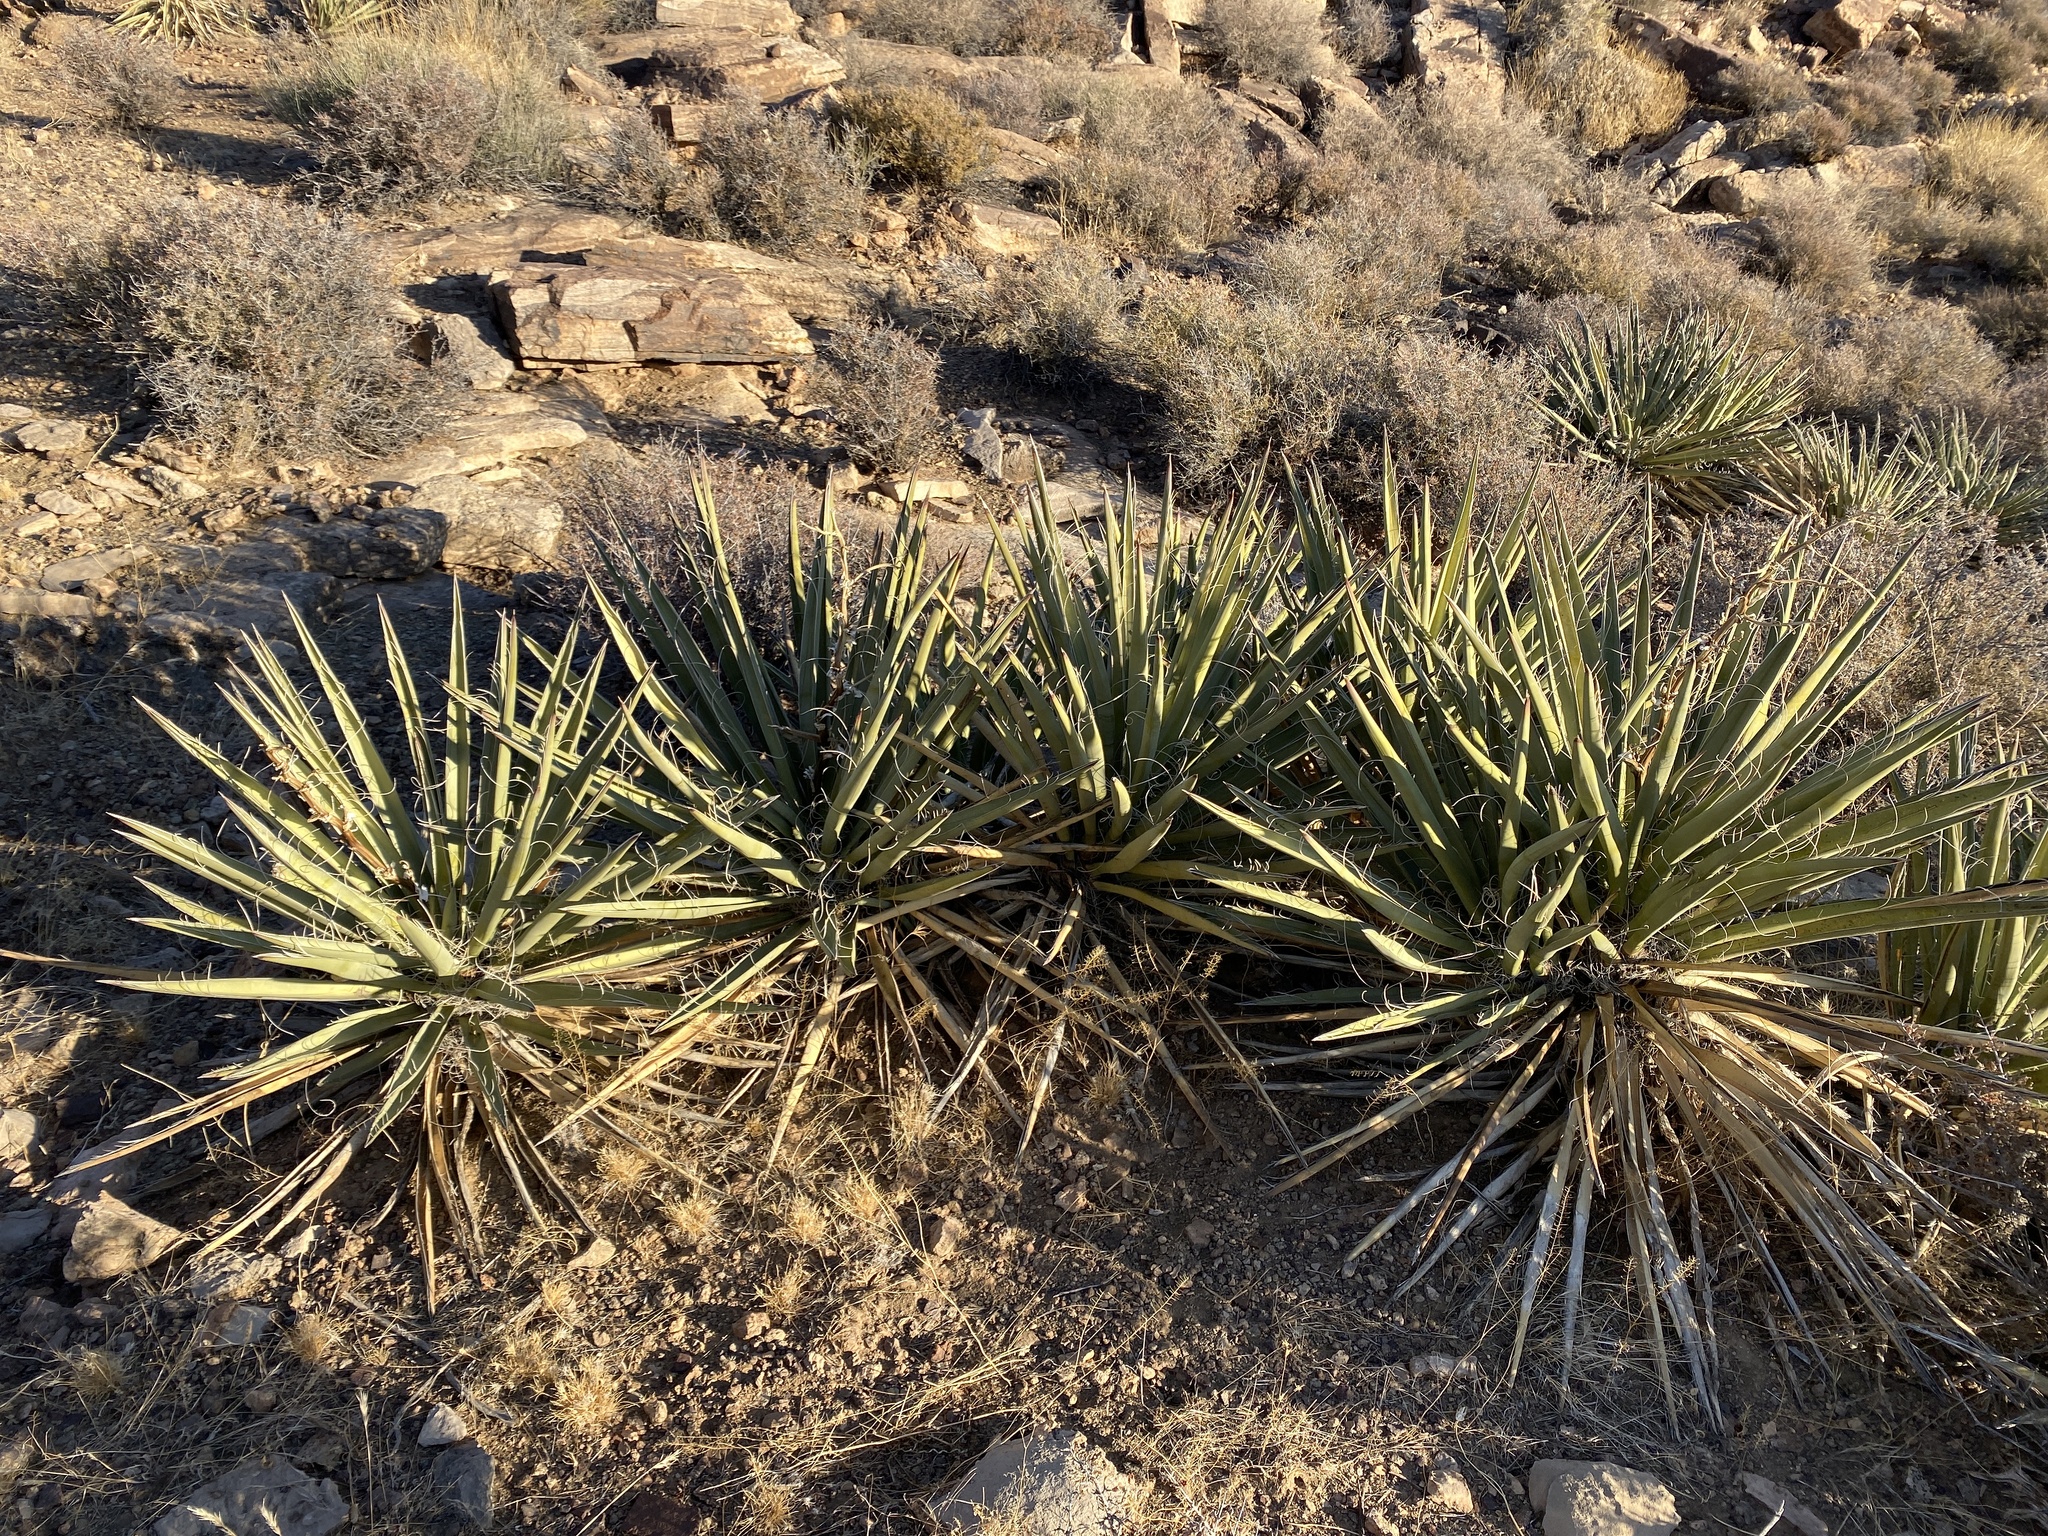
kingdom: Plantae
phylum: Tracheophyta
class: Liliopsida
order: Asparagales
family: Asparagaceae
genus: Yucca
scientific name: Yucca baccata
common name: Banana yucca
